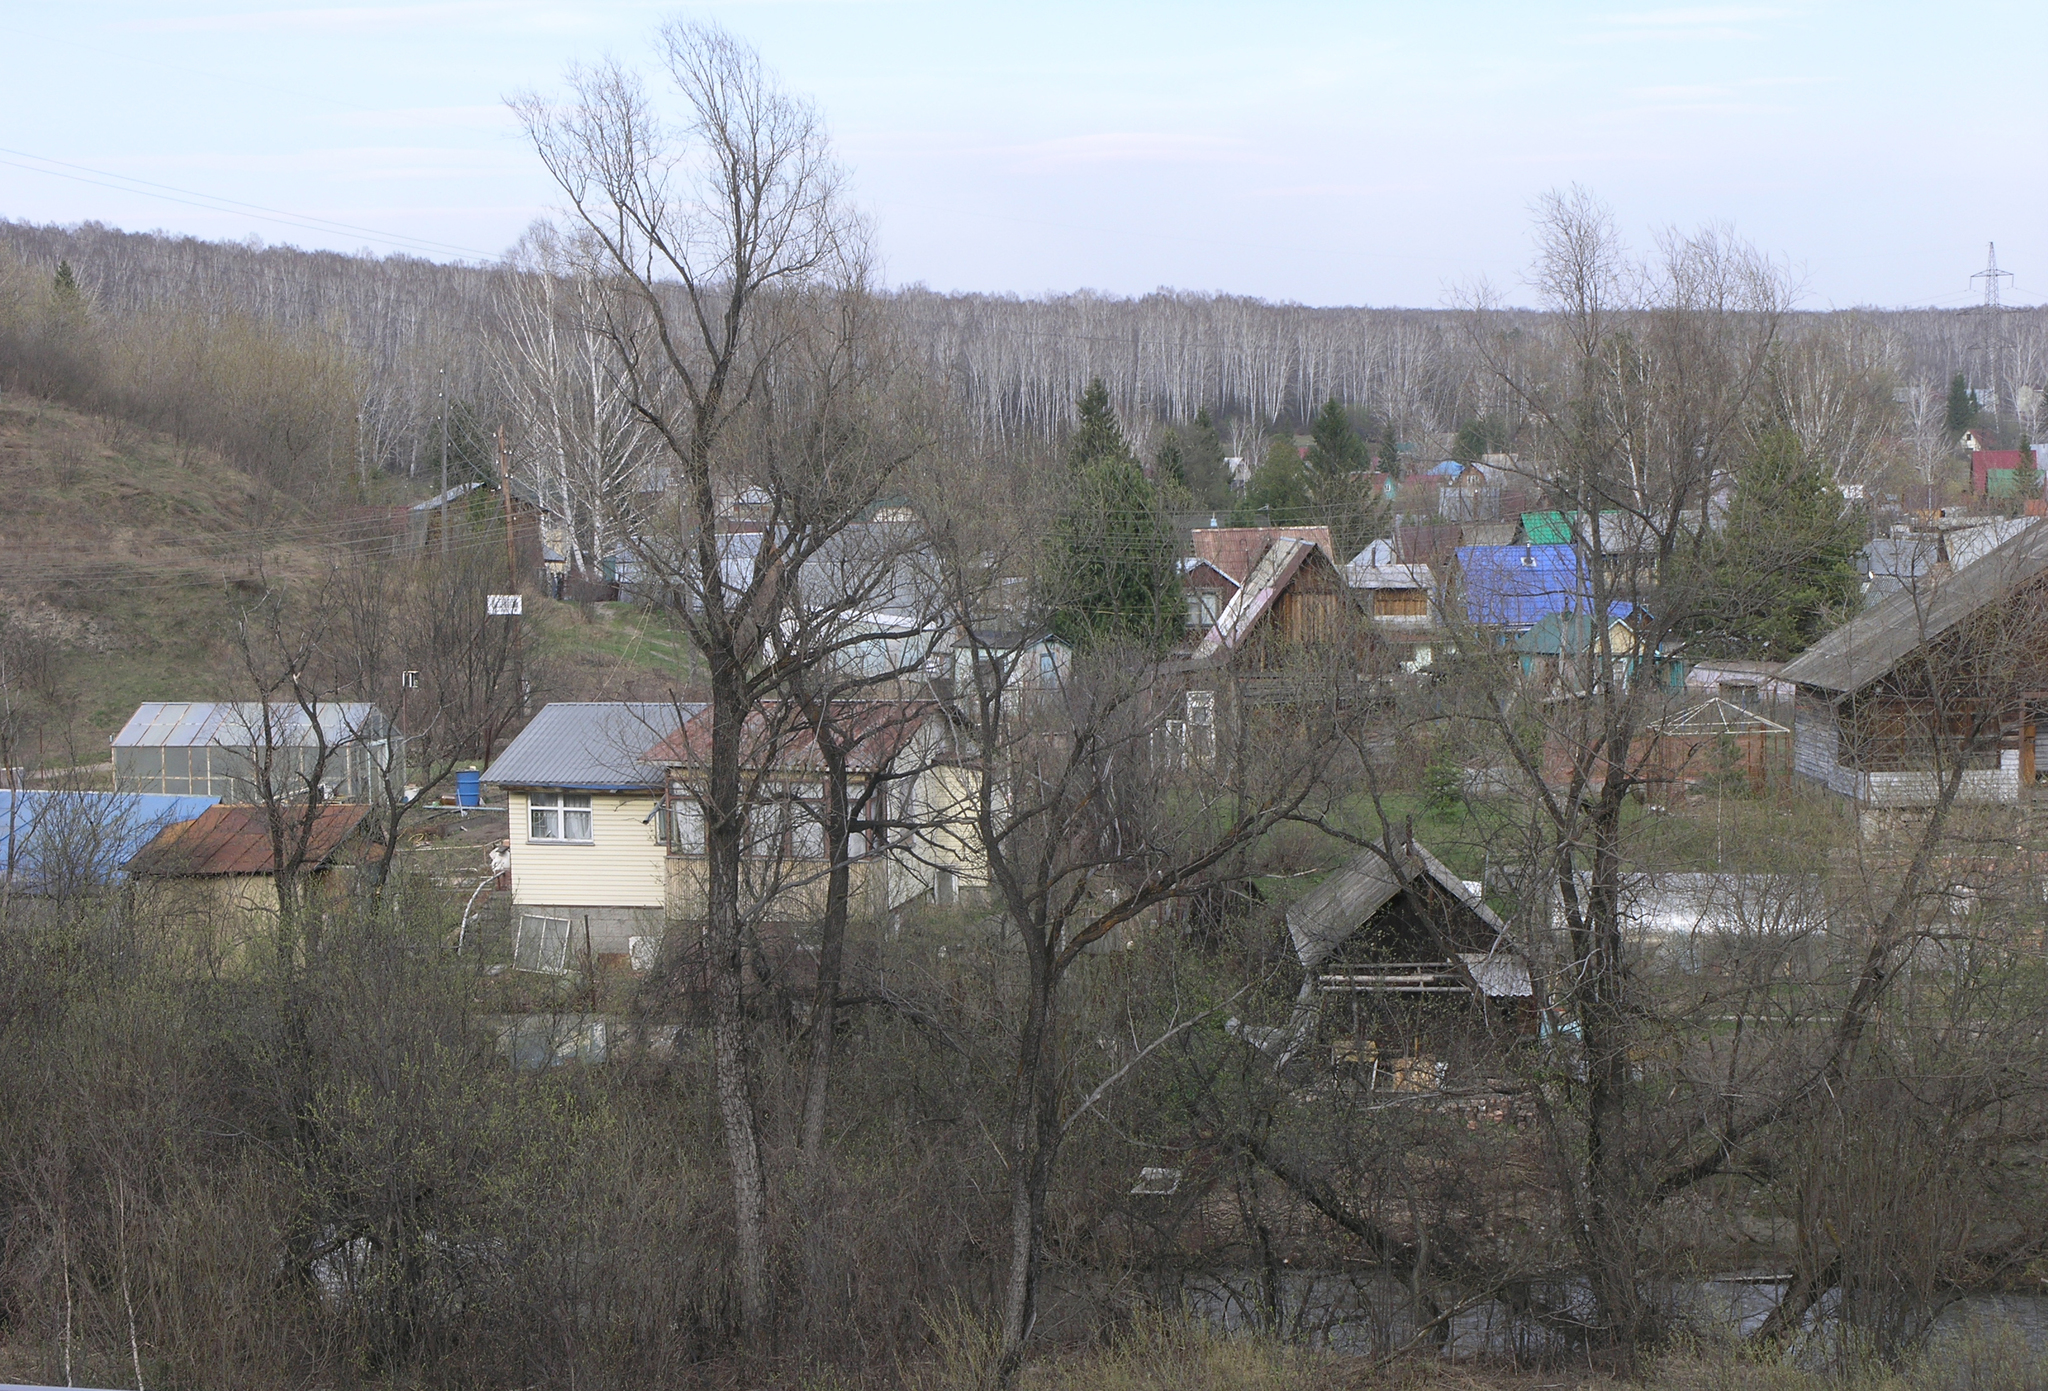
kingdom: Plantae
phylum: Tracheophyta
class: Magnoliopsida
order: Malpighiales
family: Salicaceae
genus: Salix
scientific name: Salix alba
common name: White willow
